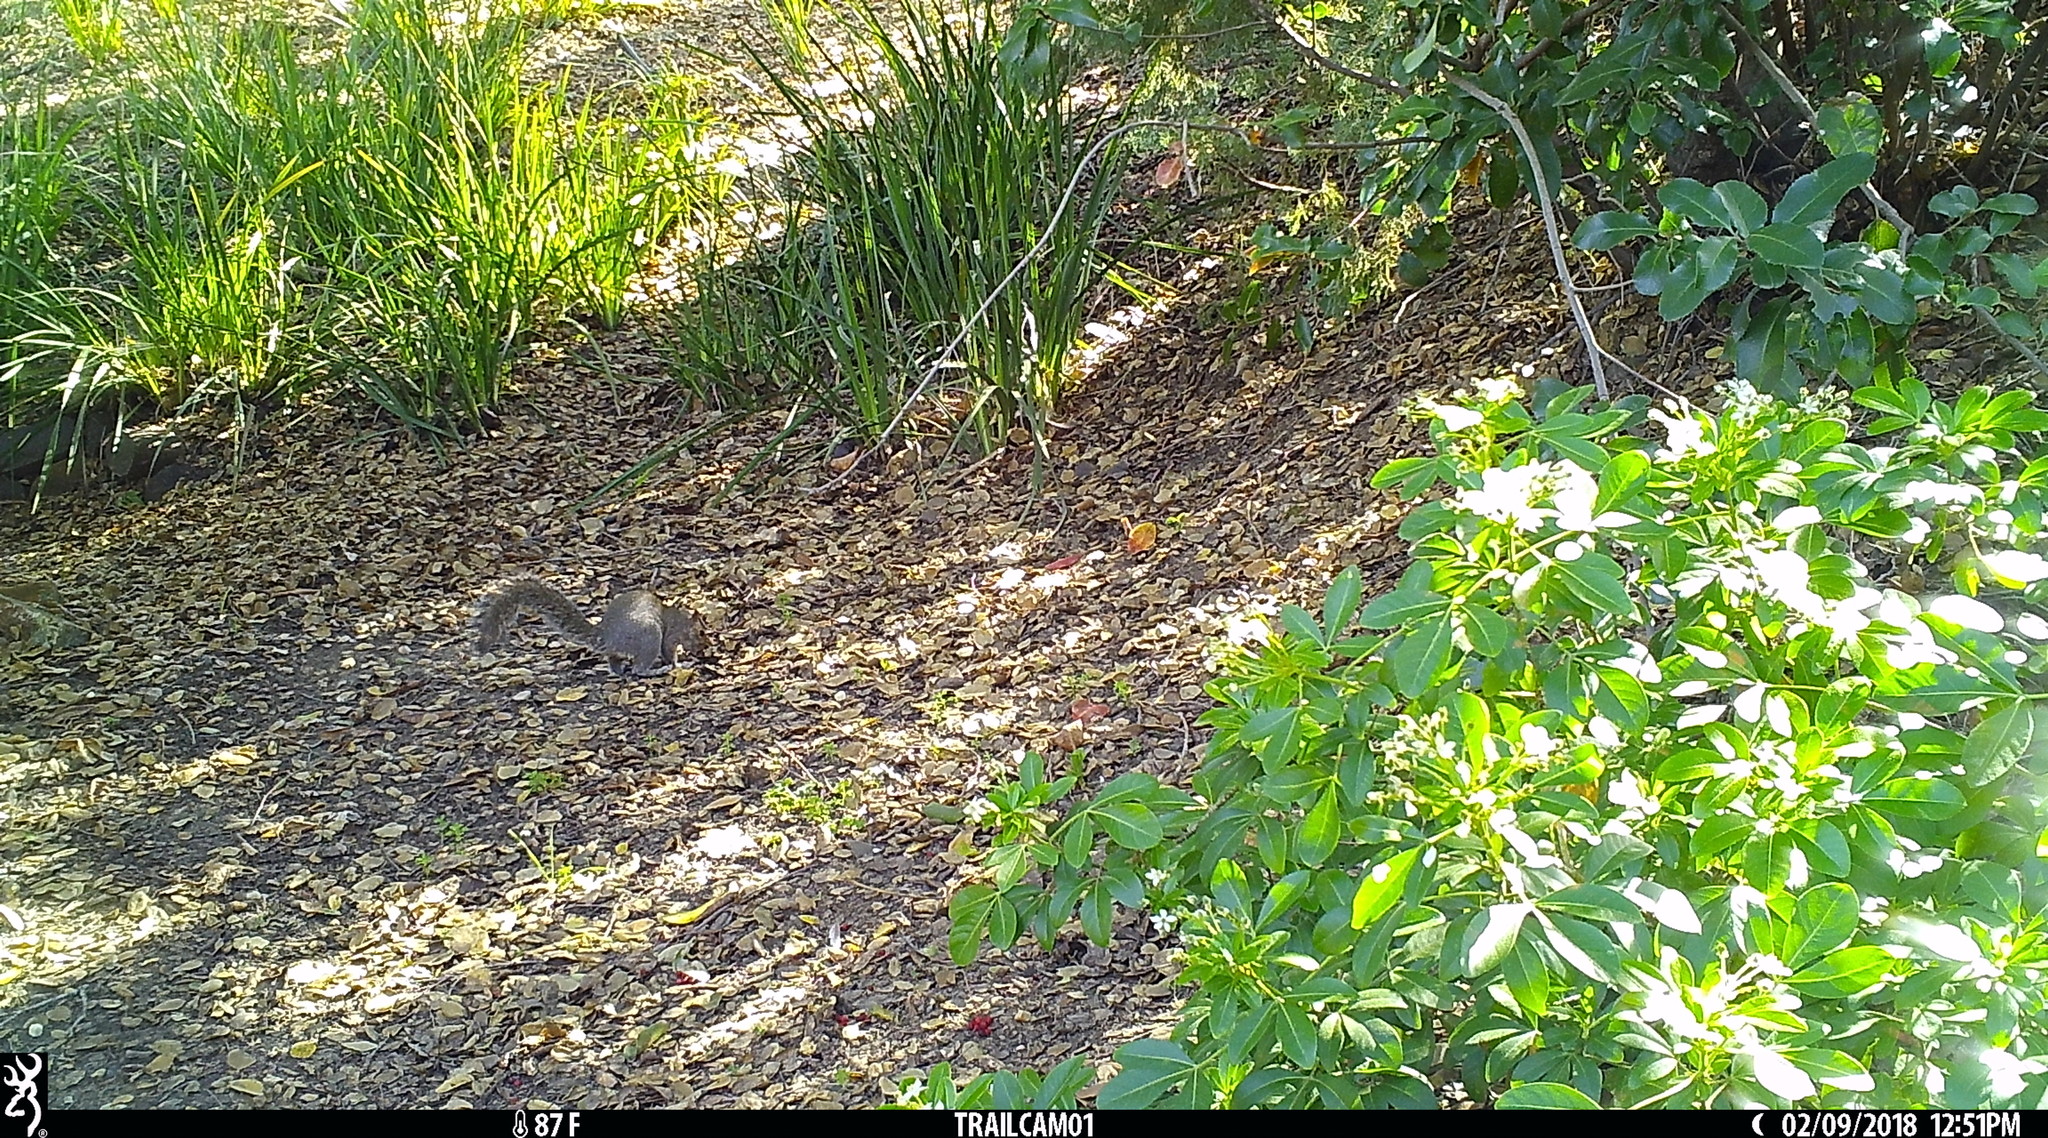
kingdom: Animalia
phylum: Chordata
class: Mammalia
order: Rodentia
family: Sciuridae
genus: Sciurus
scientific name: Sciurus carolinensis
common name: Eastern gray squirrel
